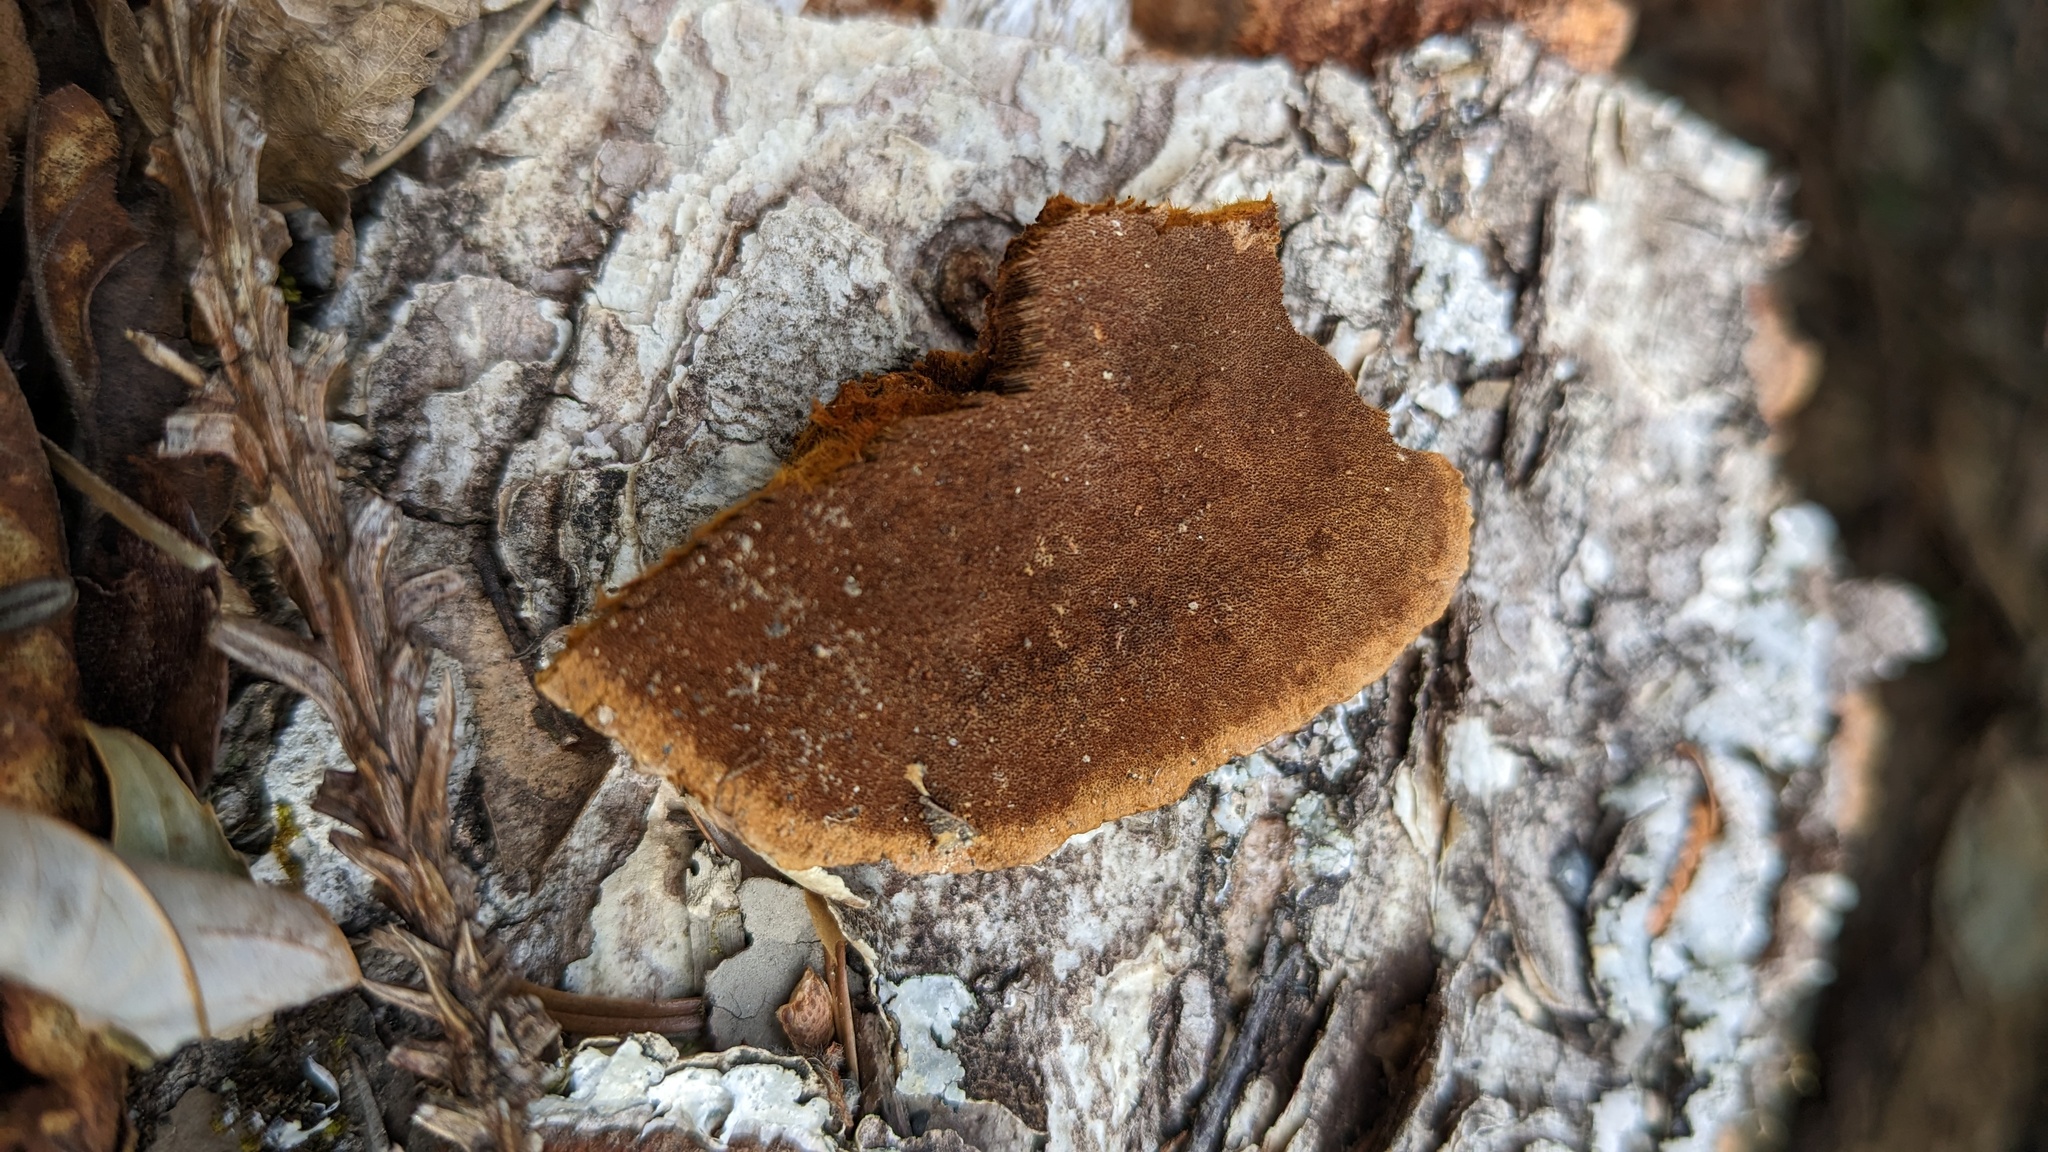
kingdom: Fungi
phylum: Basidiomycota
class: Agaricomycetes
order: Hymenochaetales
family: Hymenochaetaceae
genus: Phellinus
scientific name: Phellinus gilvus
